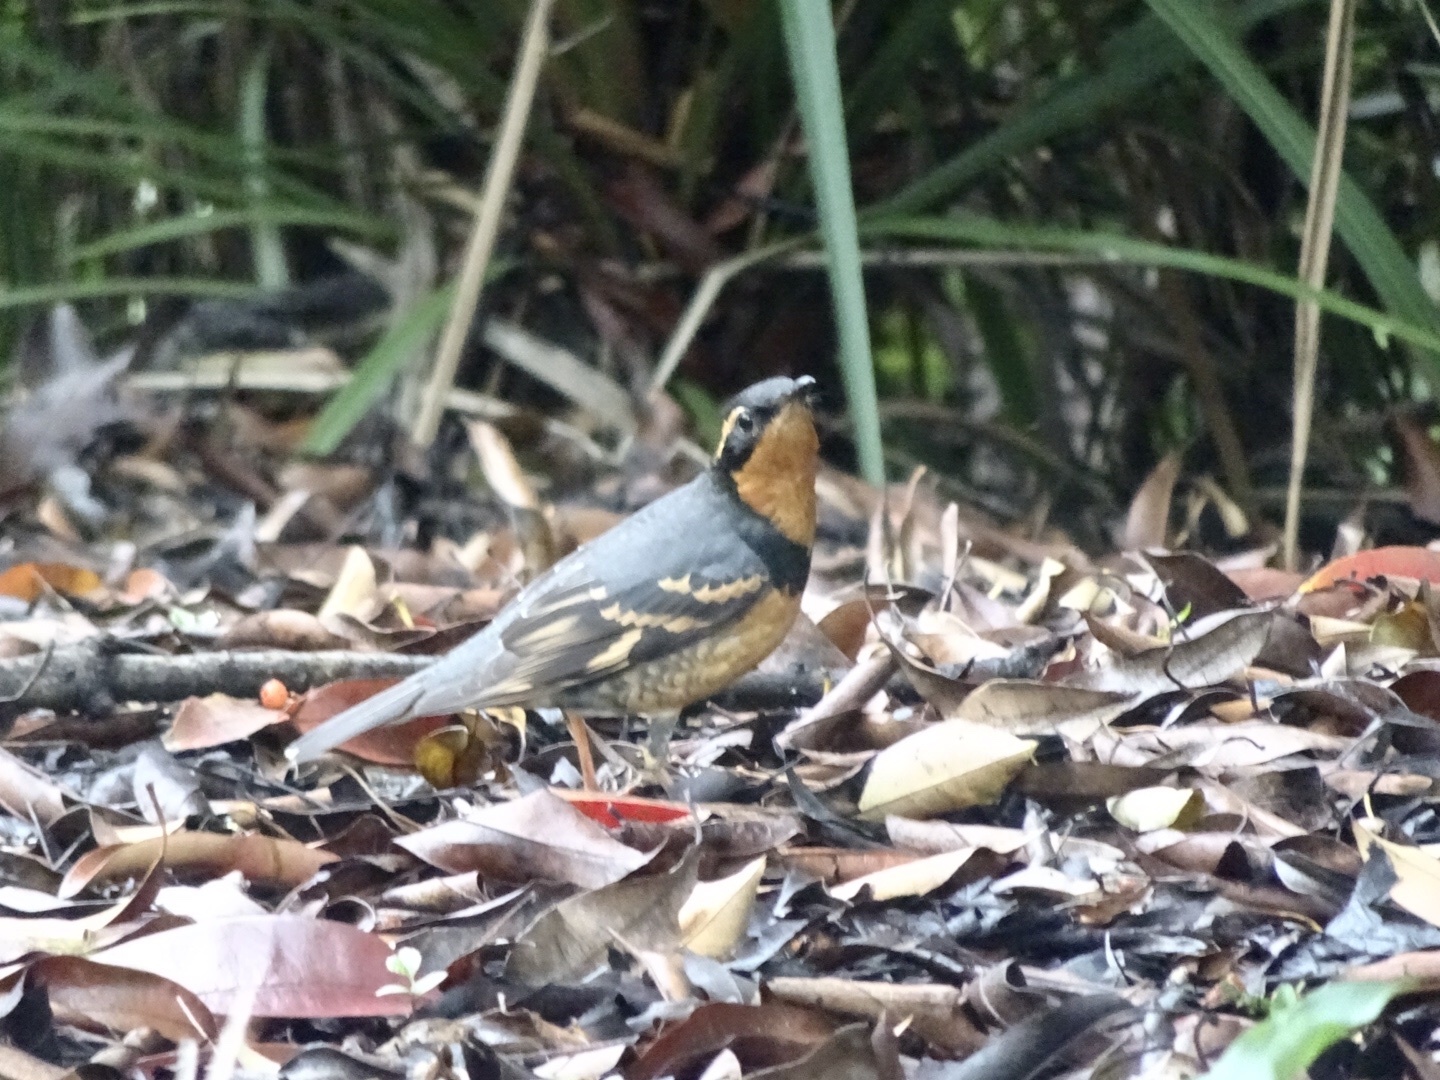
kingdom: Animalia
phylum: Chordata
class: Aves
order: Passeriformes
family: Turdidae
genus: Ixoreus
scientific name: Ixoreus naevius
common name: Varied thrush
